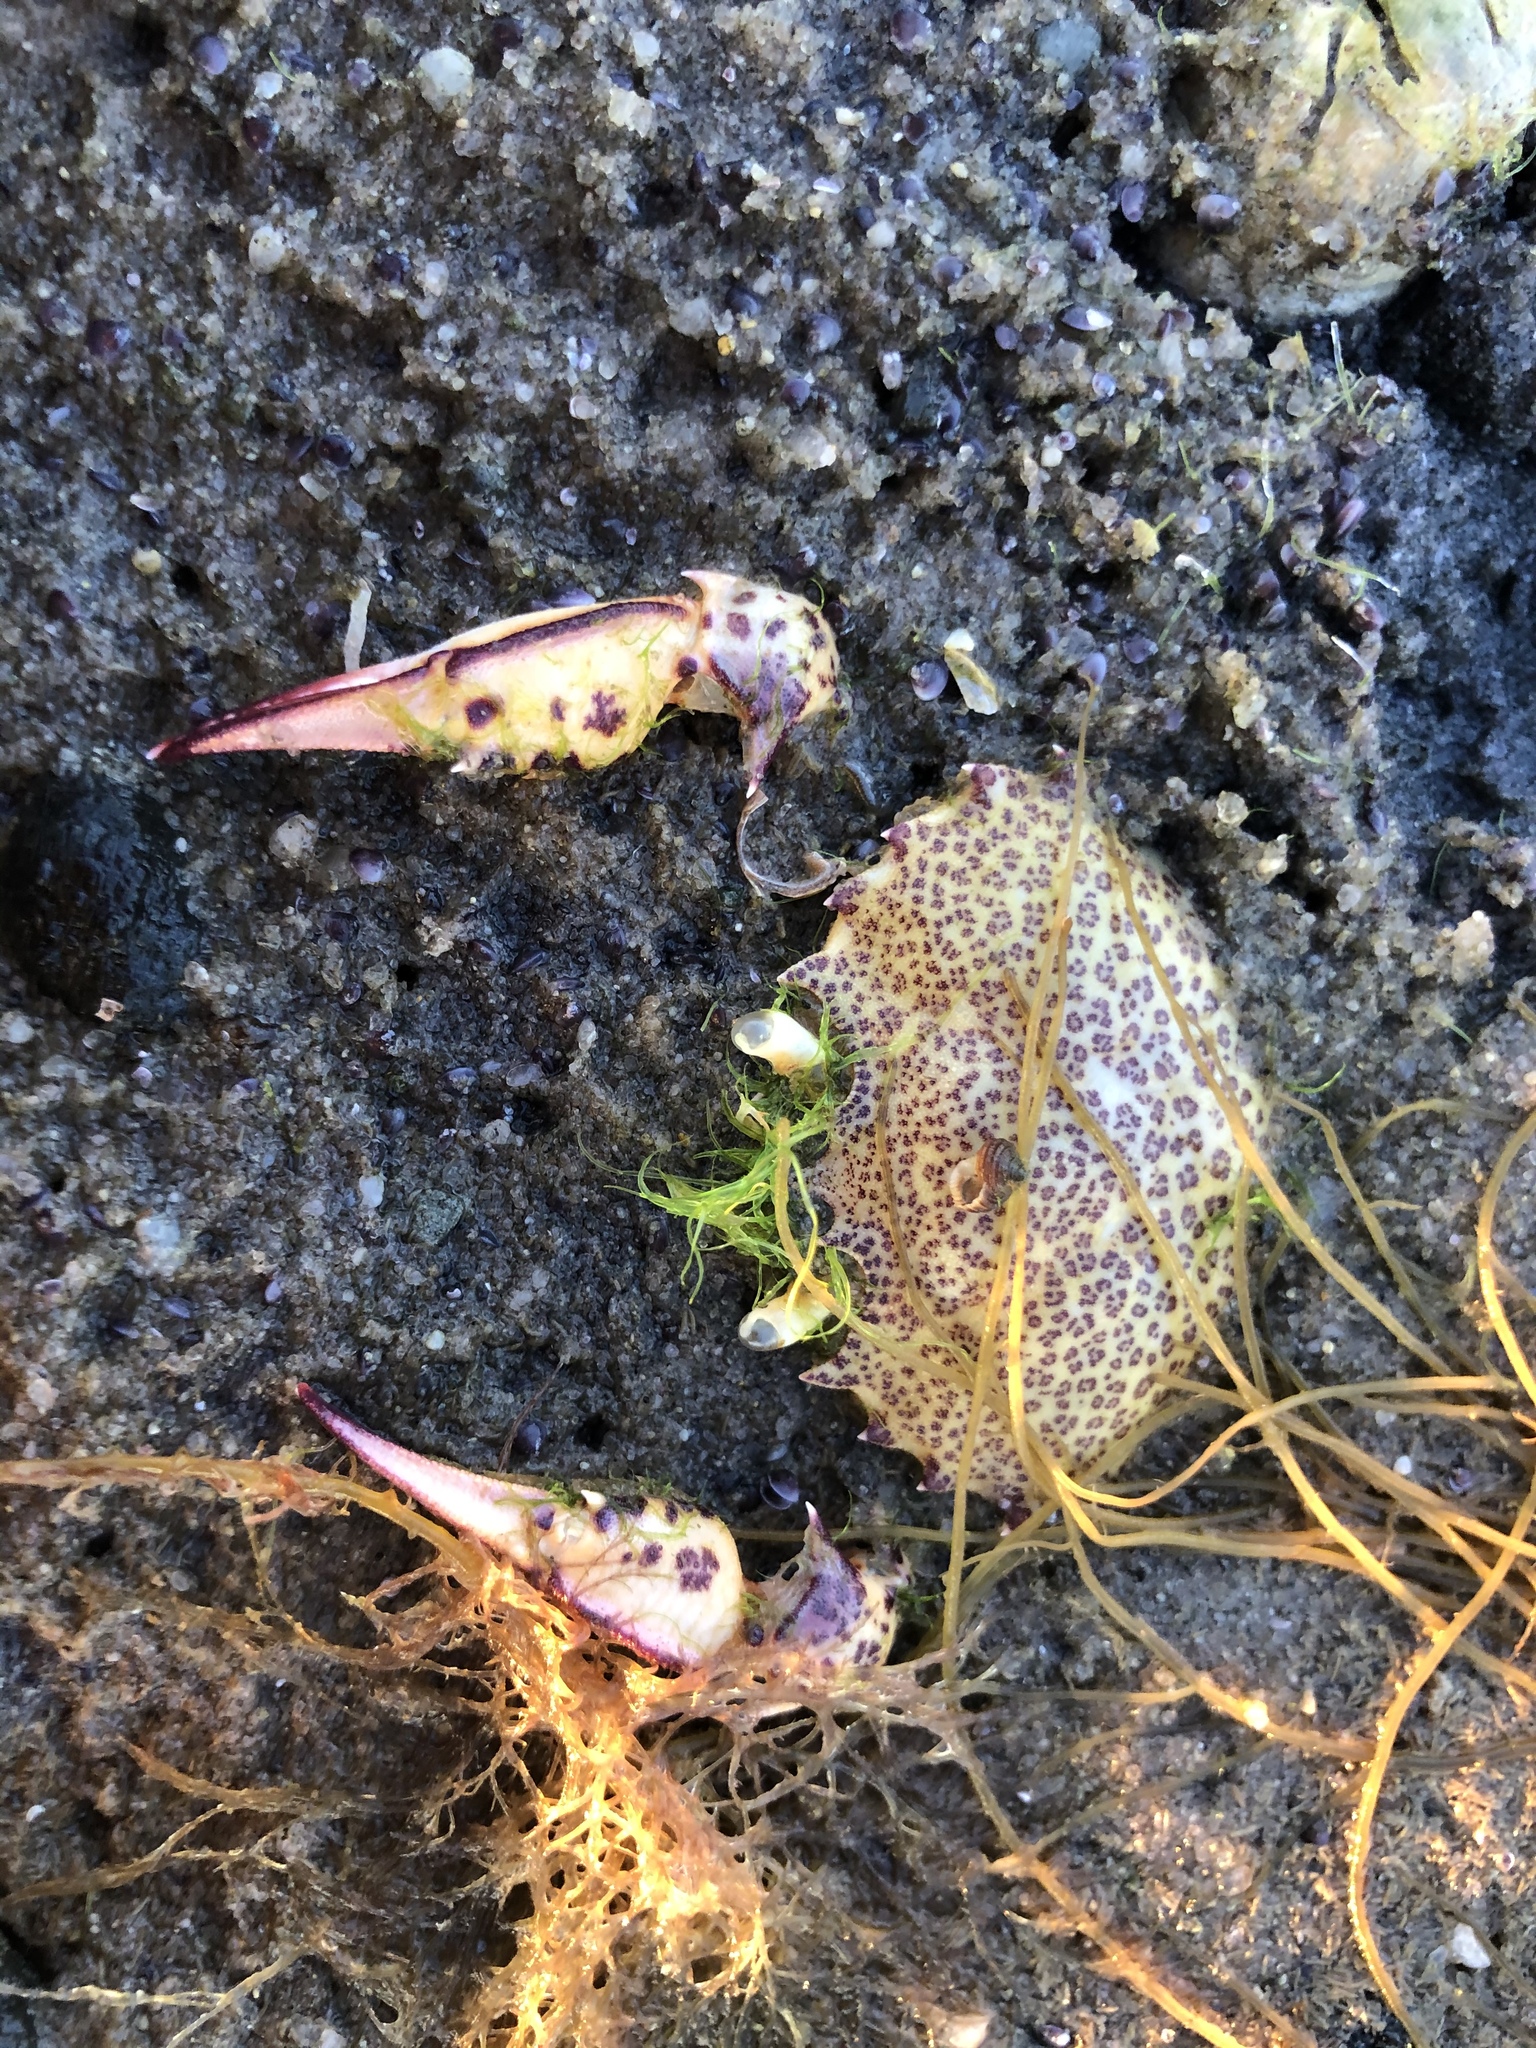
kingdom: Animalia
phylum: Arthropoda
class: Malacostraca
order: Decapoda
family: Ovalipidae
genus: Ovalipes
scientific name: Ovalipes ocellatus
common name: Lady crab
